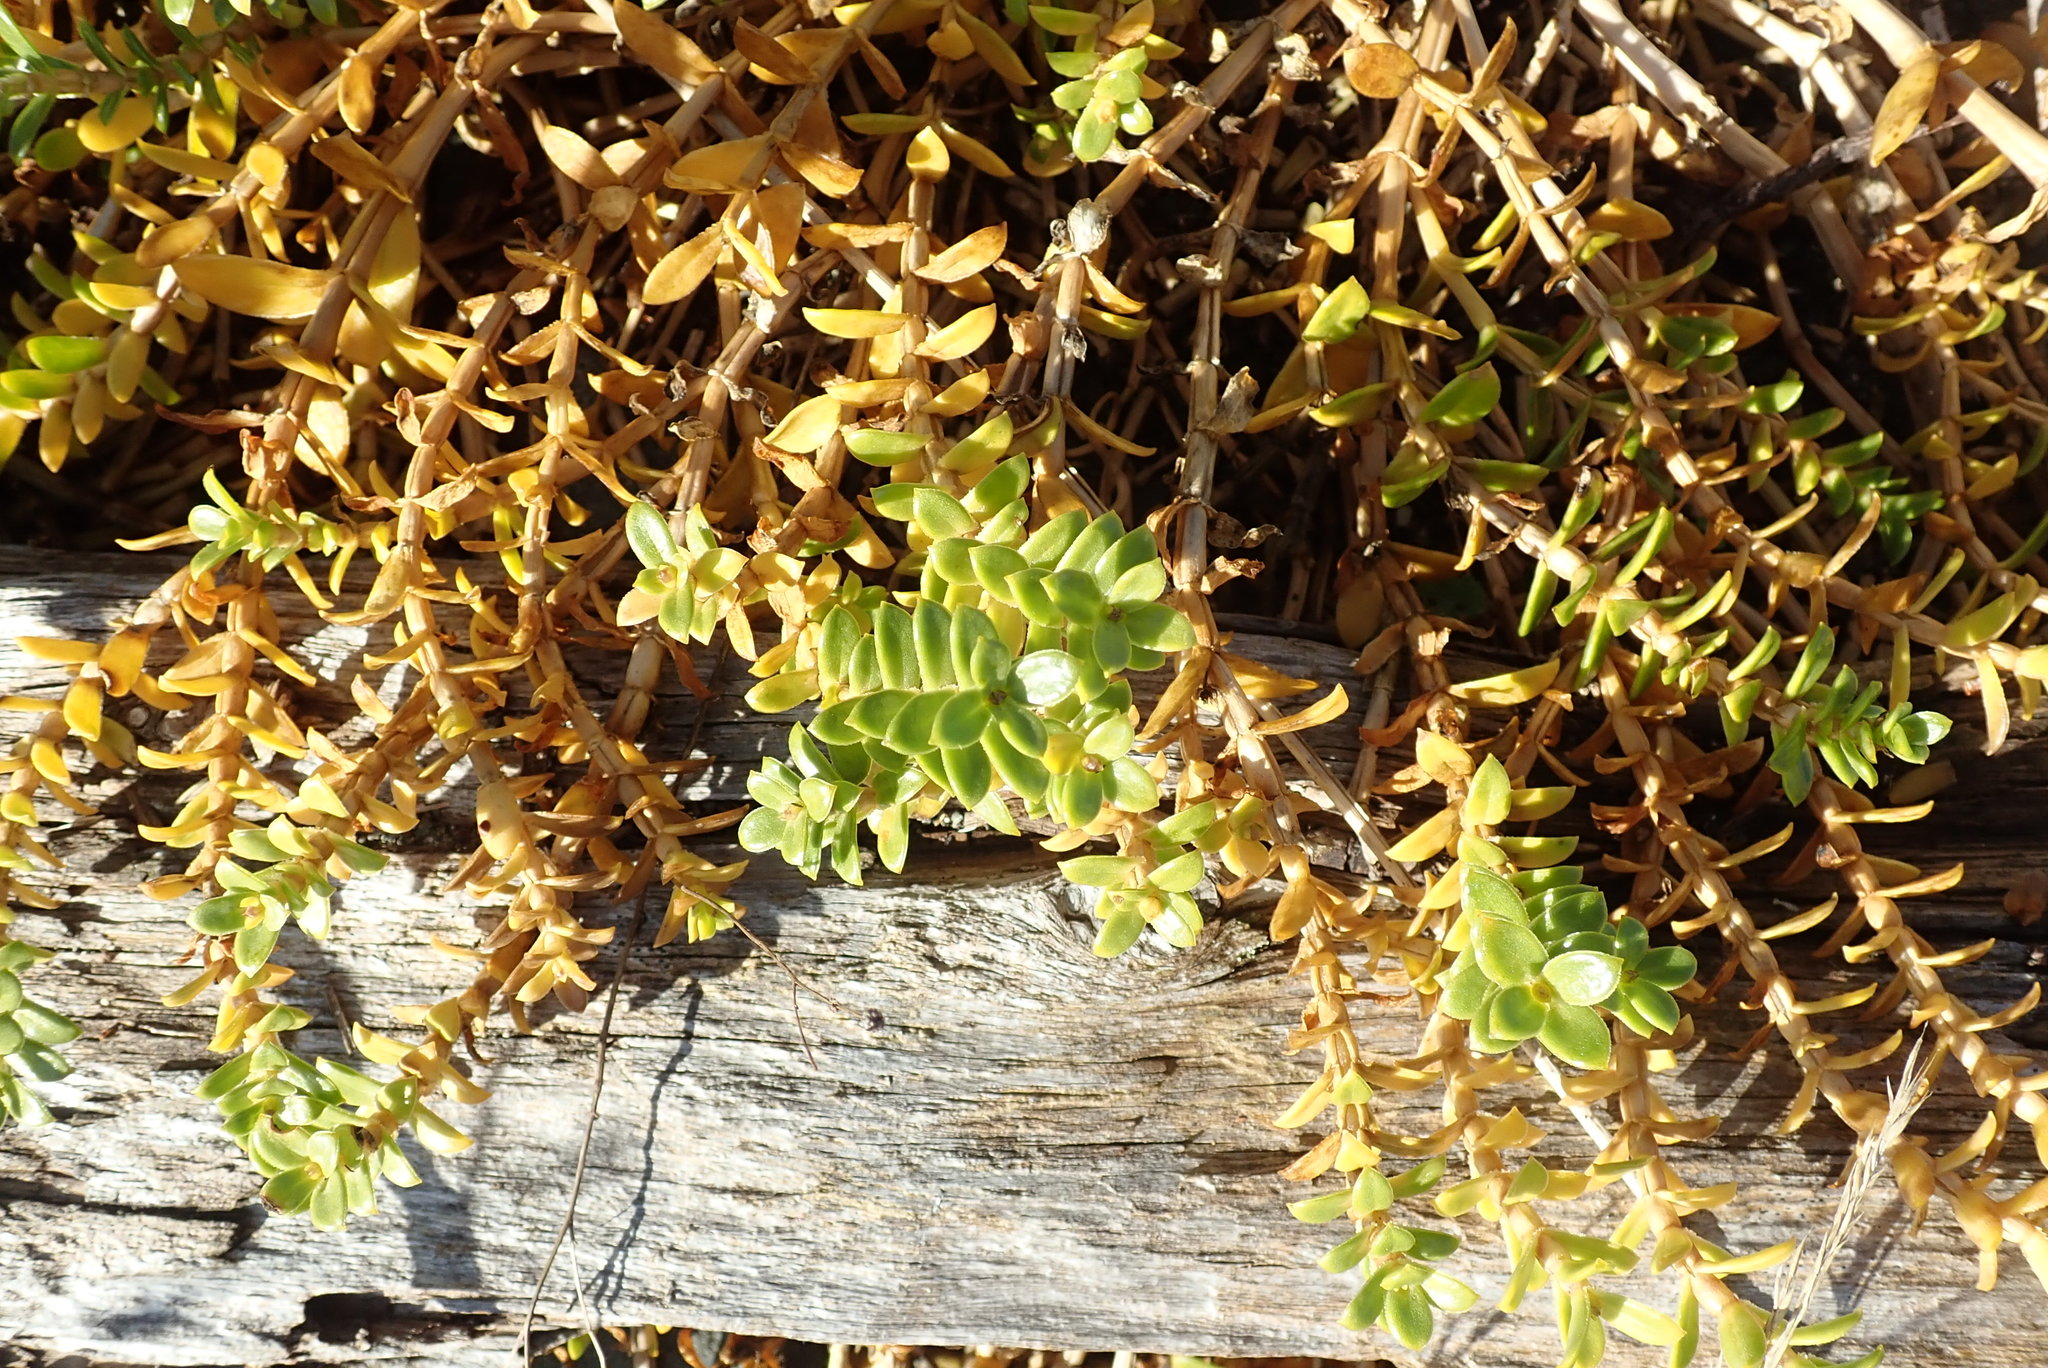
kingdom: Plantae
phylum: Tracheophyta
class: Magnoliopsida
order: Caryophyllales
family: Caryophyllaceae
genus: Honckenya
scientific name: Honckenya peploides
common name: Sea sandwort
